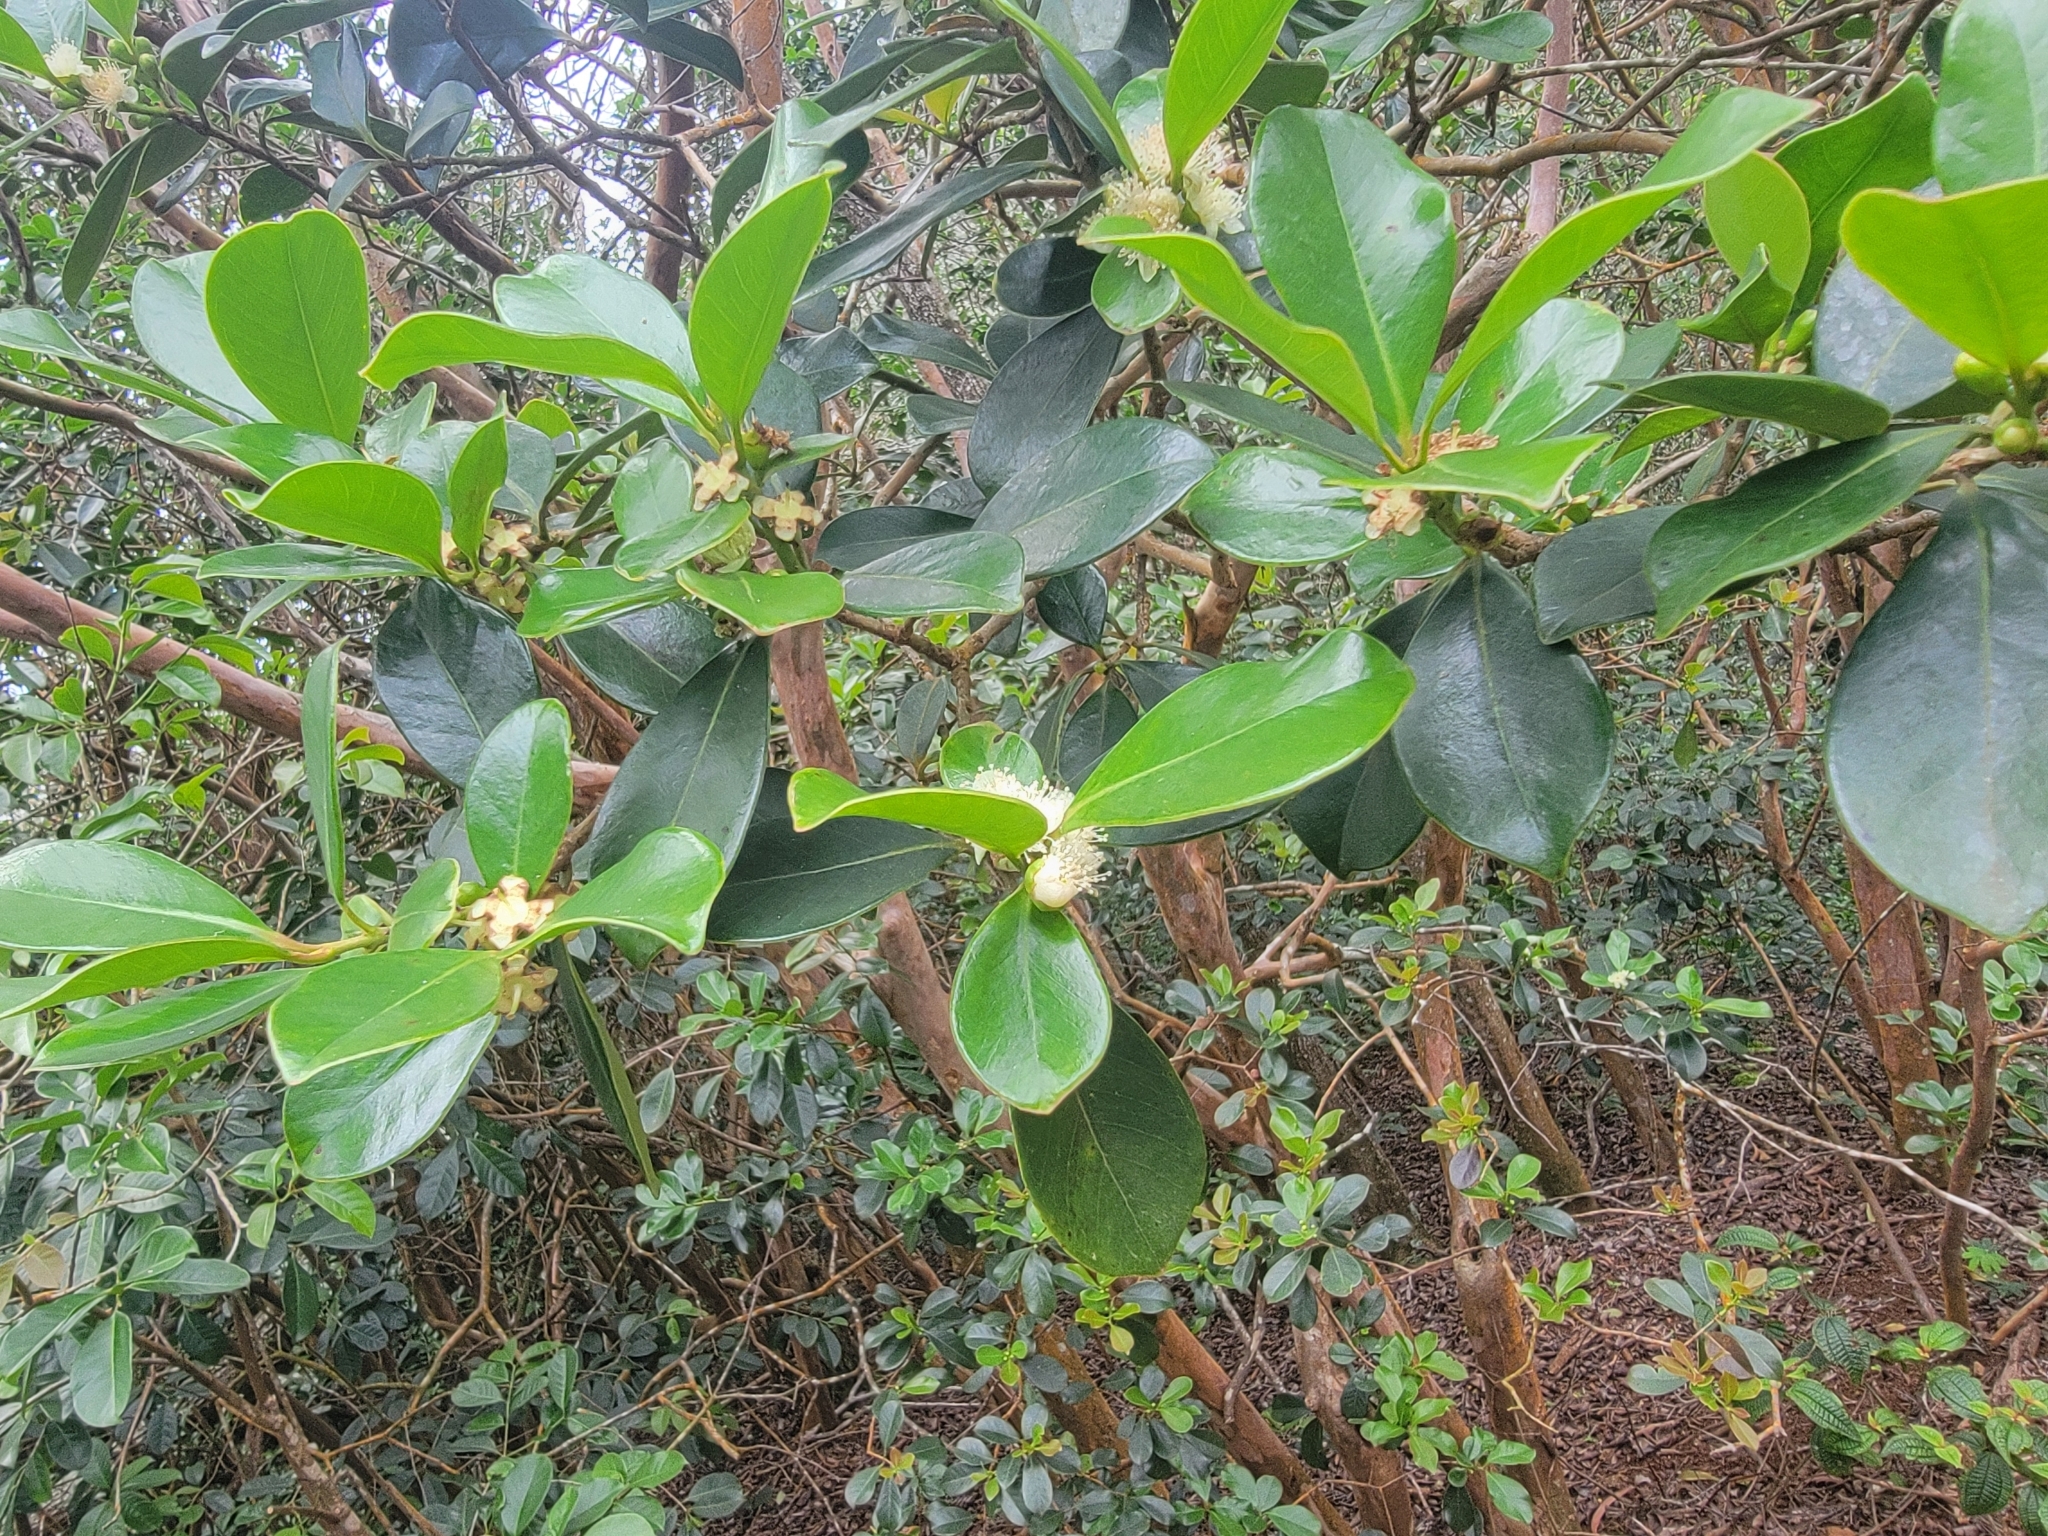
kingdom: Plantae
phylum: Tracheophyta
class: Magnoliopsida
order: Myrtales
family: Myrtaceae
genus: Psidium
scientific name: Psidium cattleianum
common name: Strawberry guava
